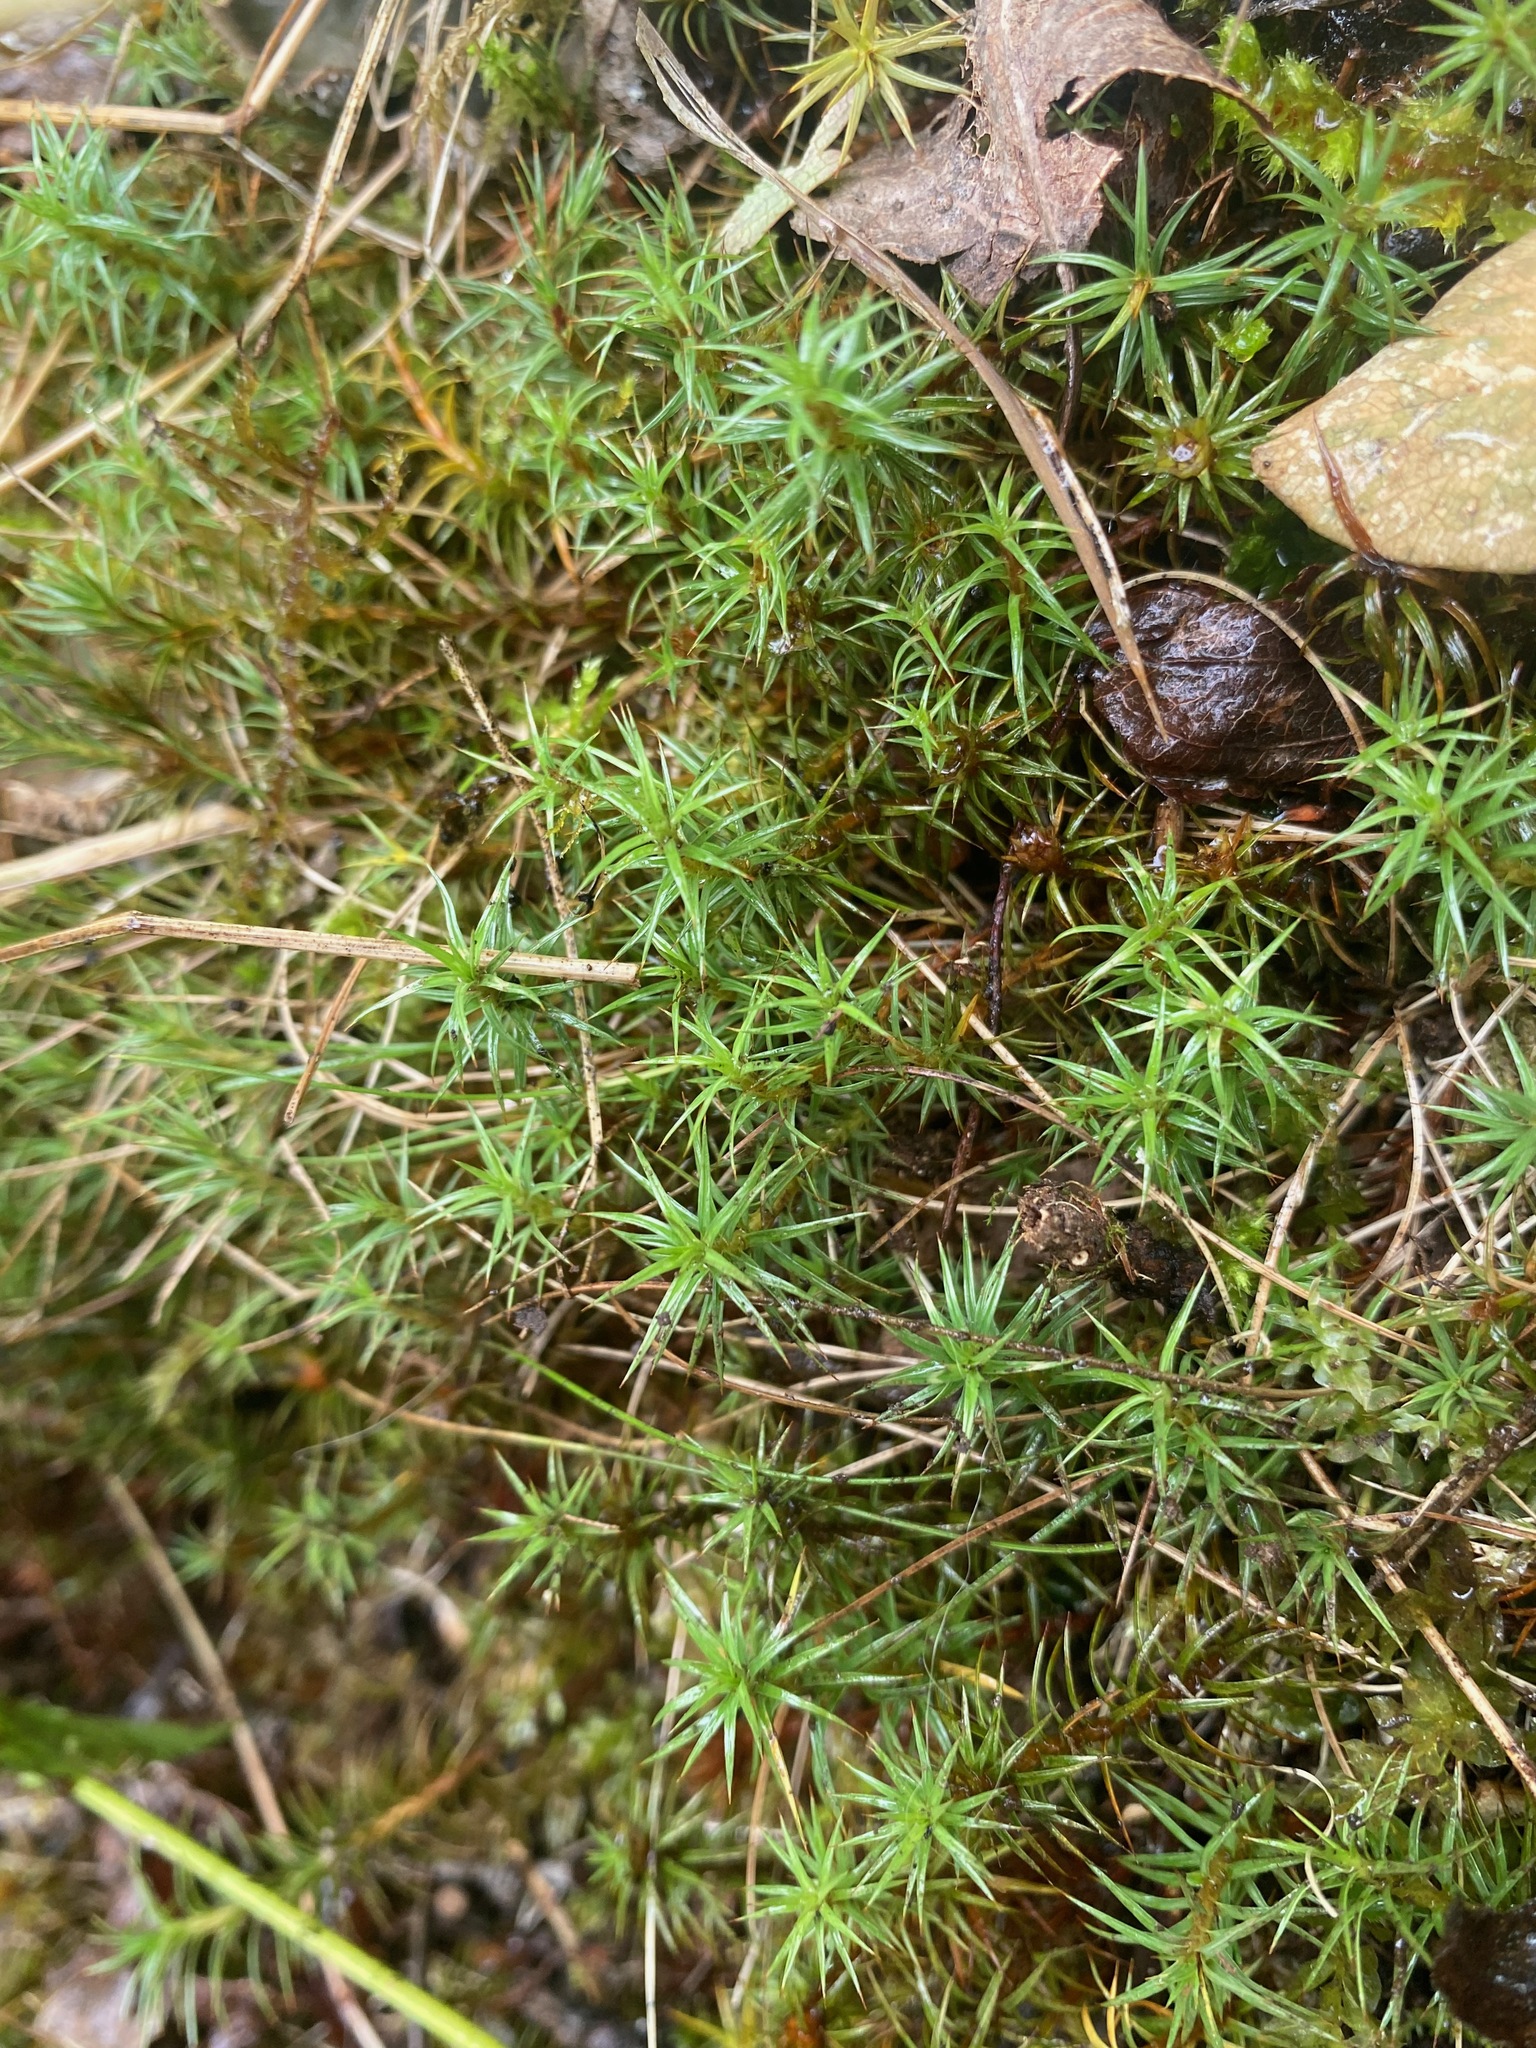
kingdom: Plantae
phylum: Bryophyta
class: Polytrichopsida
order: Polytrichales
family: Polytrichaceae
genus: Polytrichum
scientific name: Polytrichum juniperinum
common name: Juniper haircap moss
